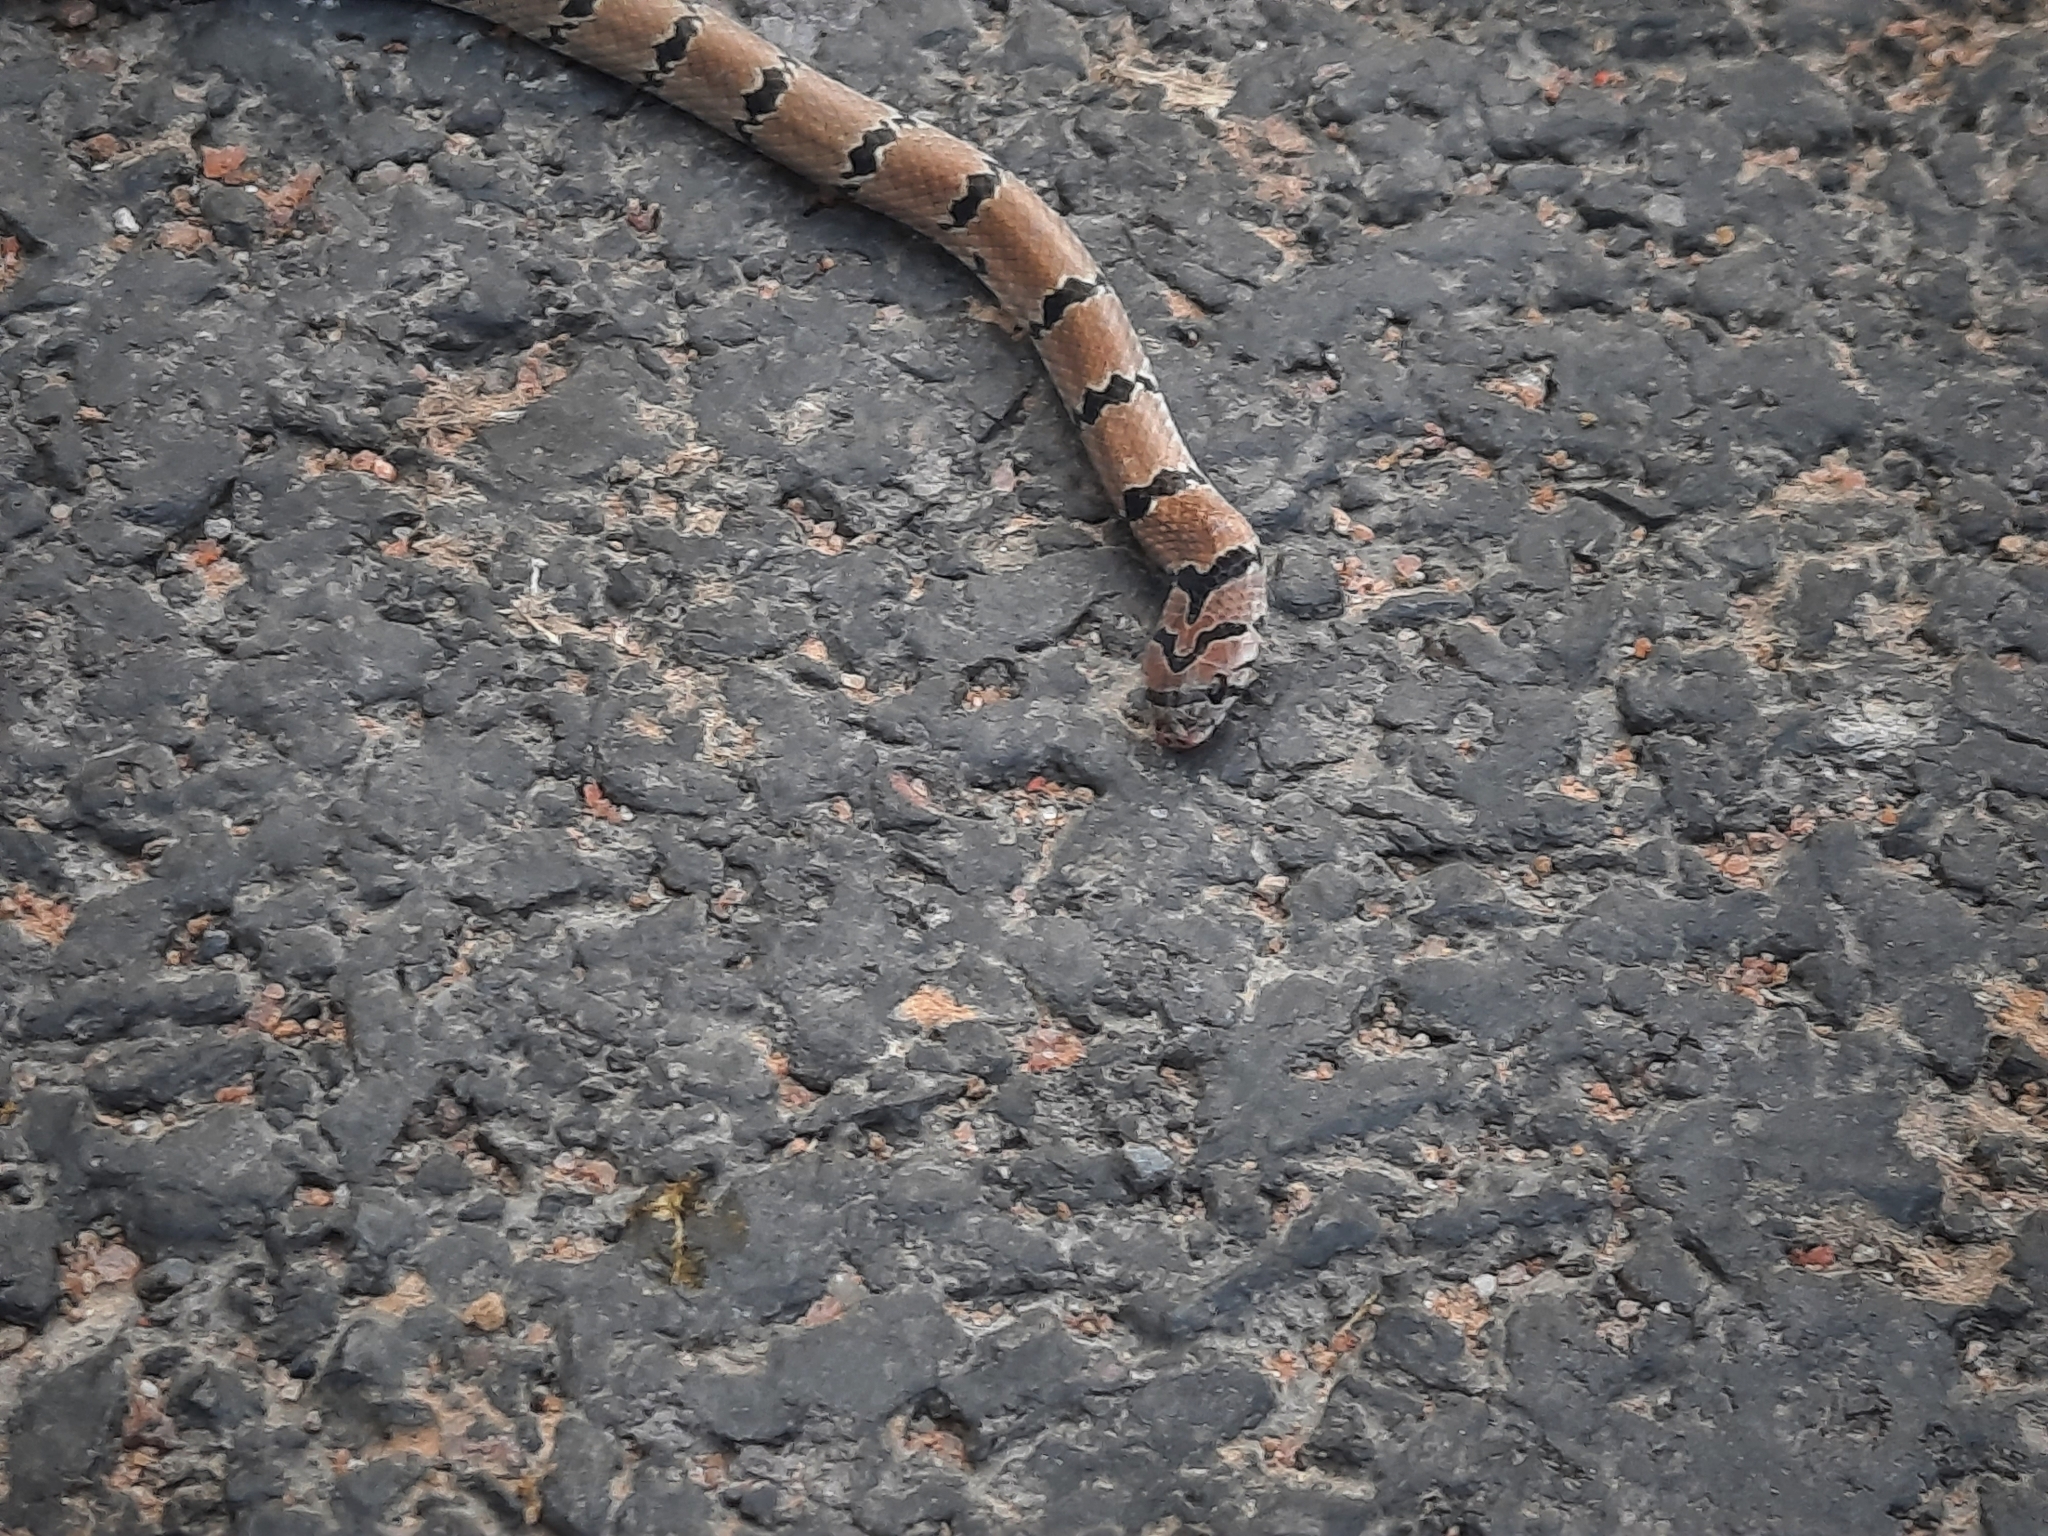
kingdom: Animalia
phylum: Chordata
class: Squamata
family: Colubridae
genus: Oligodon
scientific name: Oligodon
